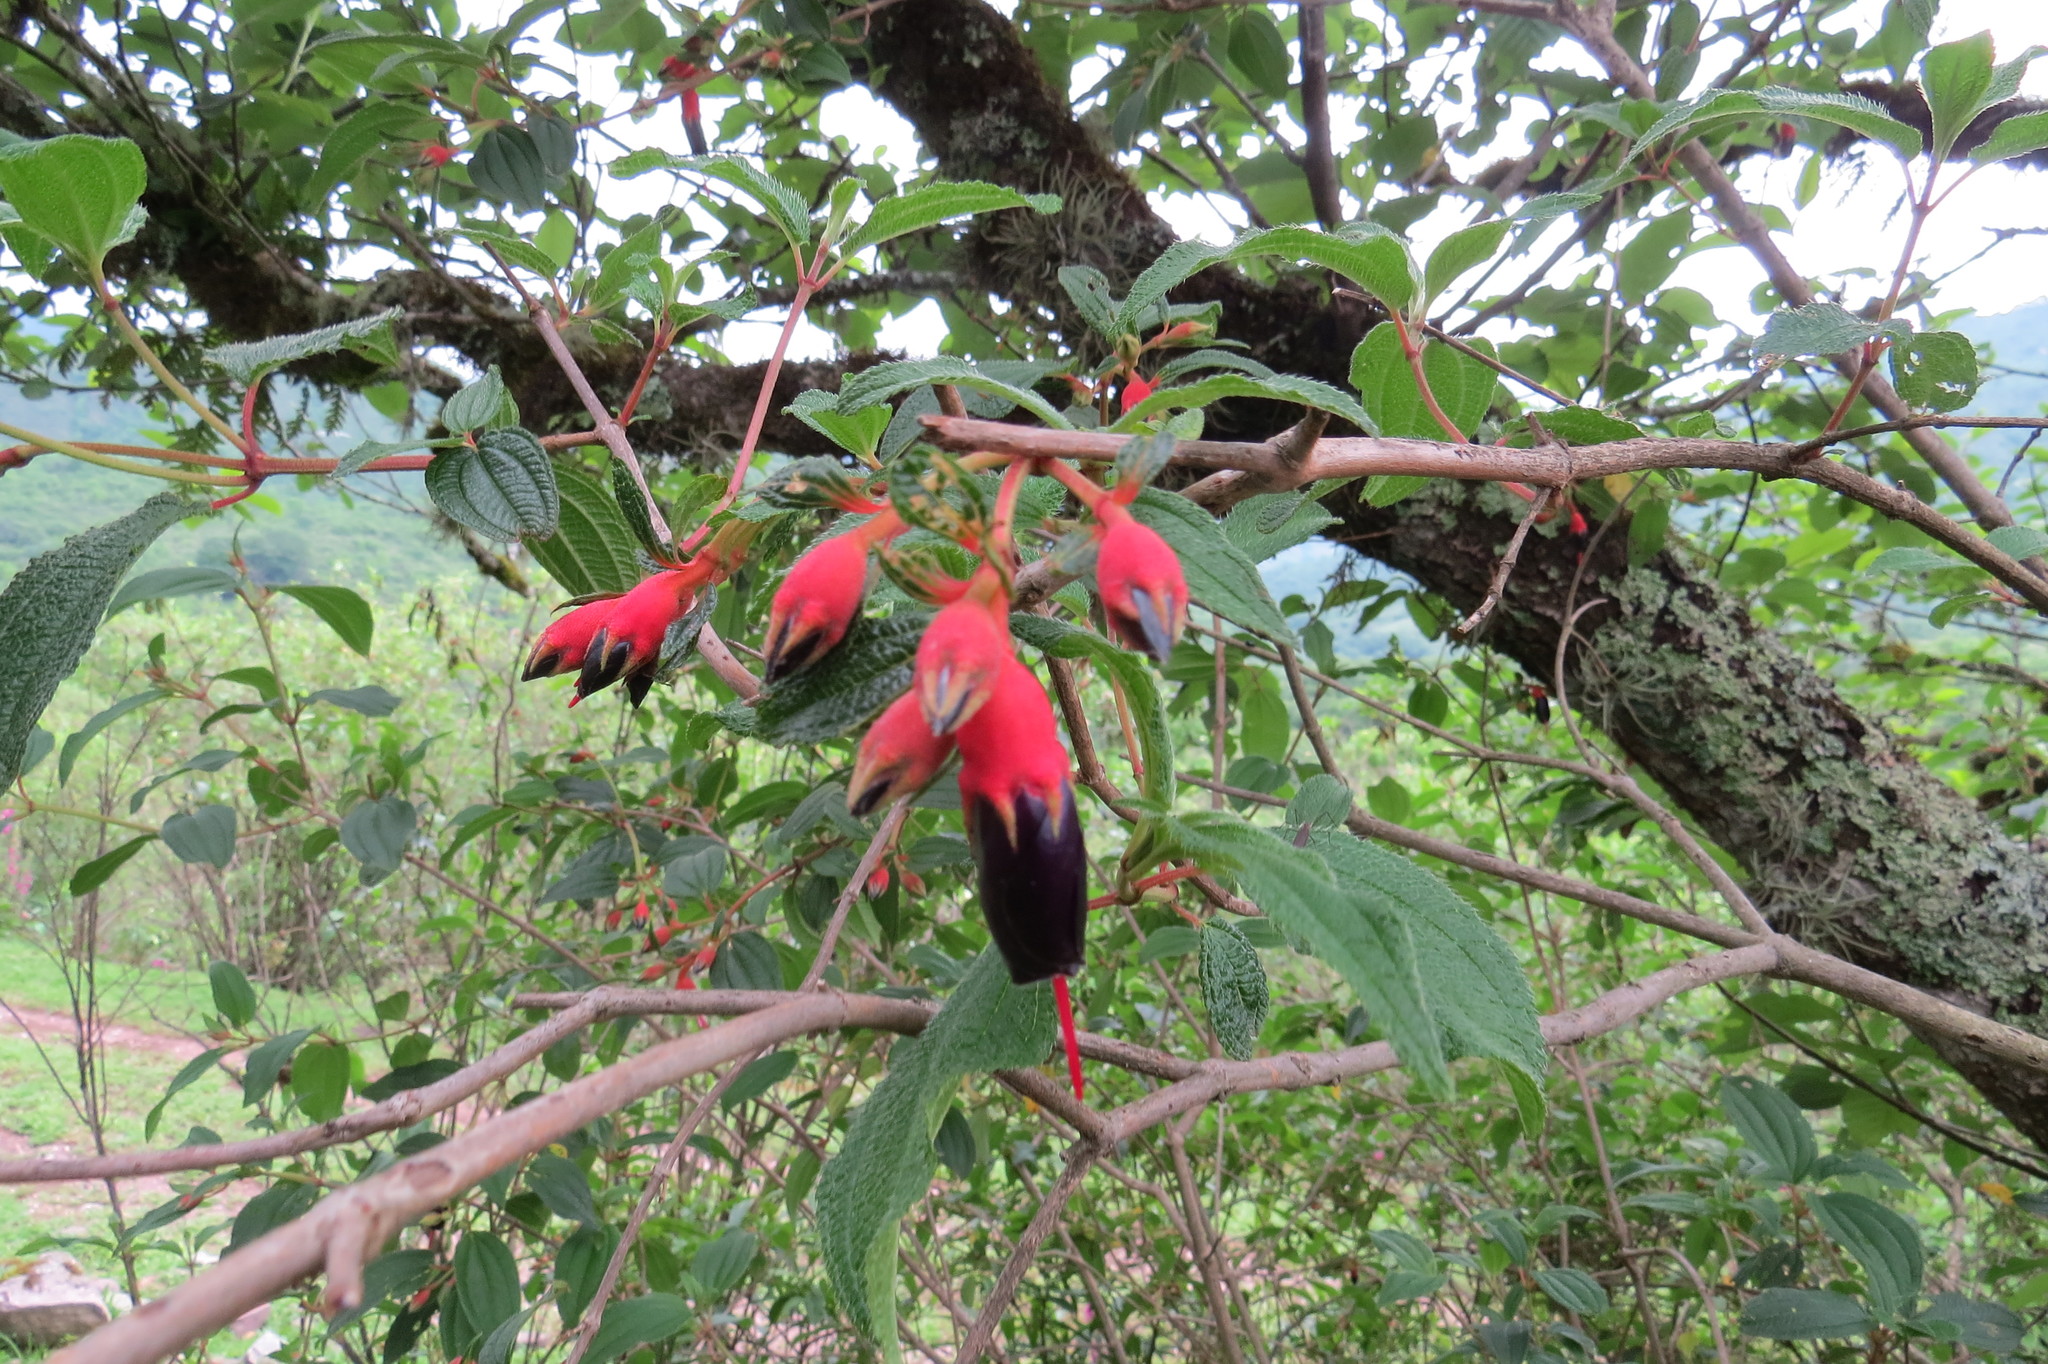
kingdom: Plantae
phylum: Tracheophyta
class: Magnoliopsida
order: Myrtales
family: Melastomataceae
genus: Brachyotum
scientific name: Brachyotum microdon
